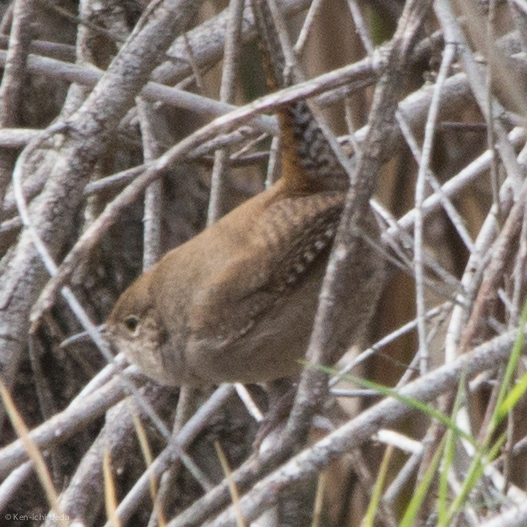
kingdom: Animalia
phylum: Chordata
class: Aves
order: Passeriformes
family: Troglodytidae
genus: Troglodytes
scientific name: Troglodytes aedon
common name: House wren
